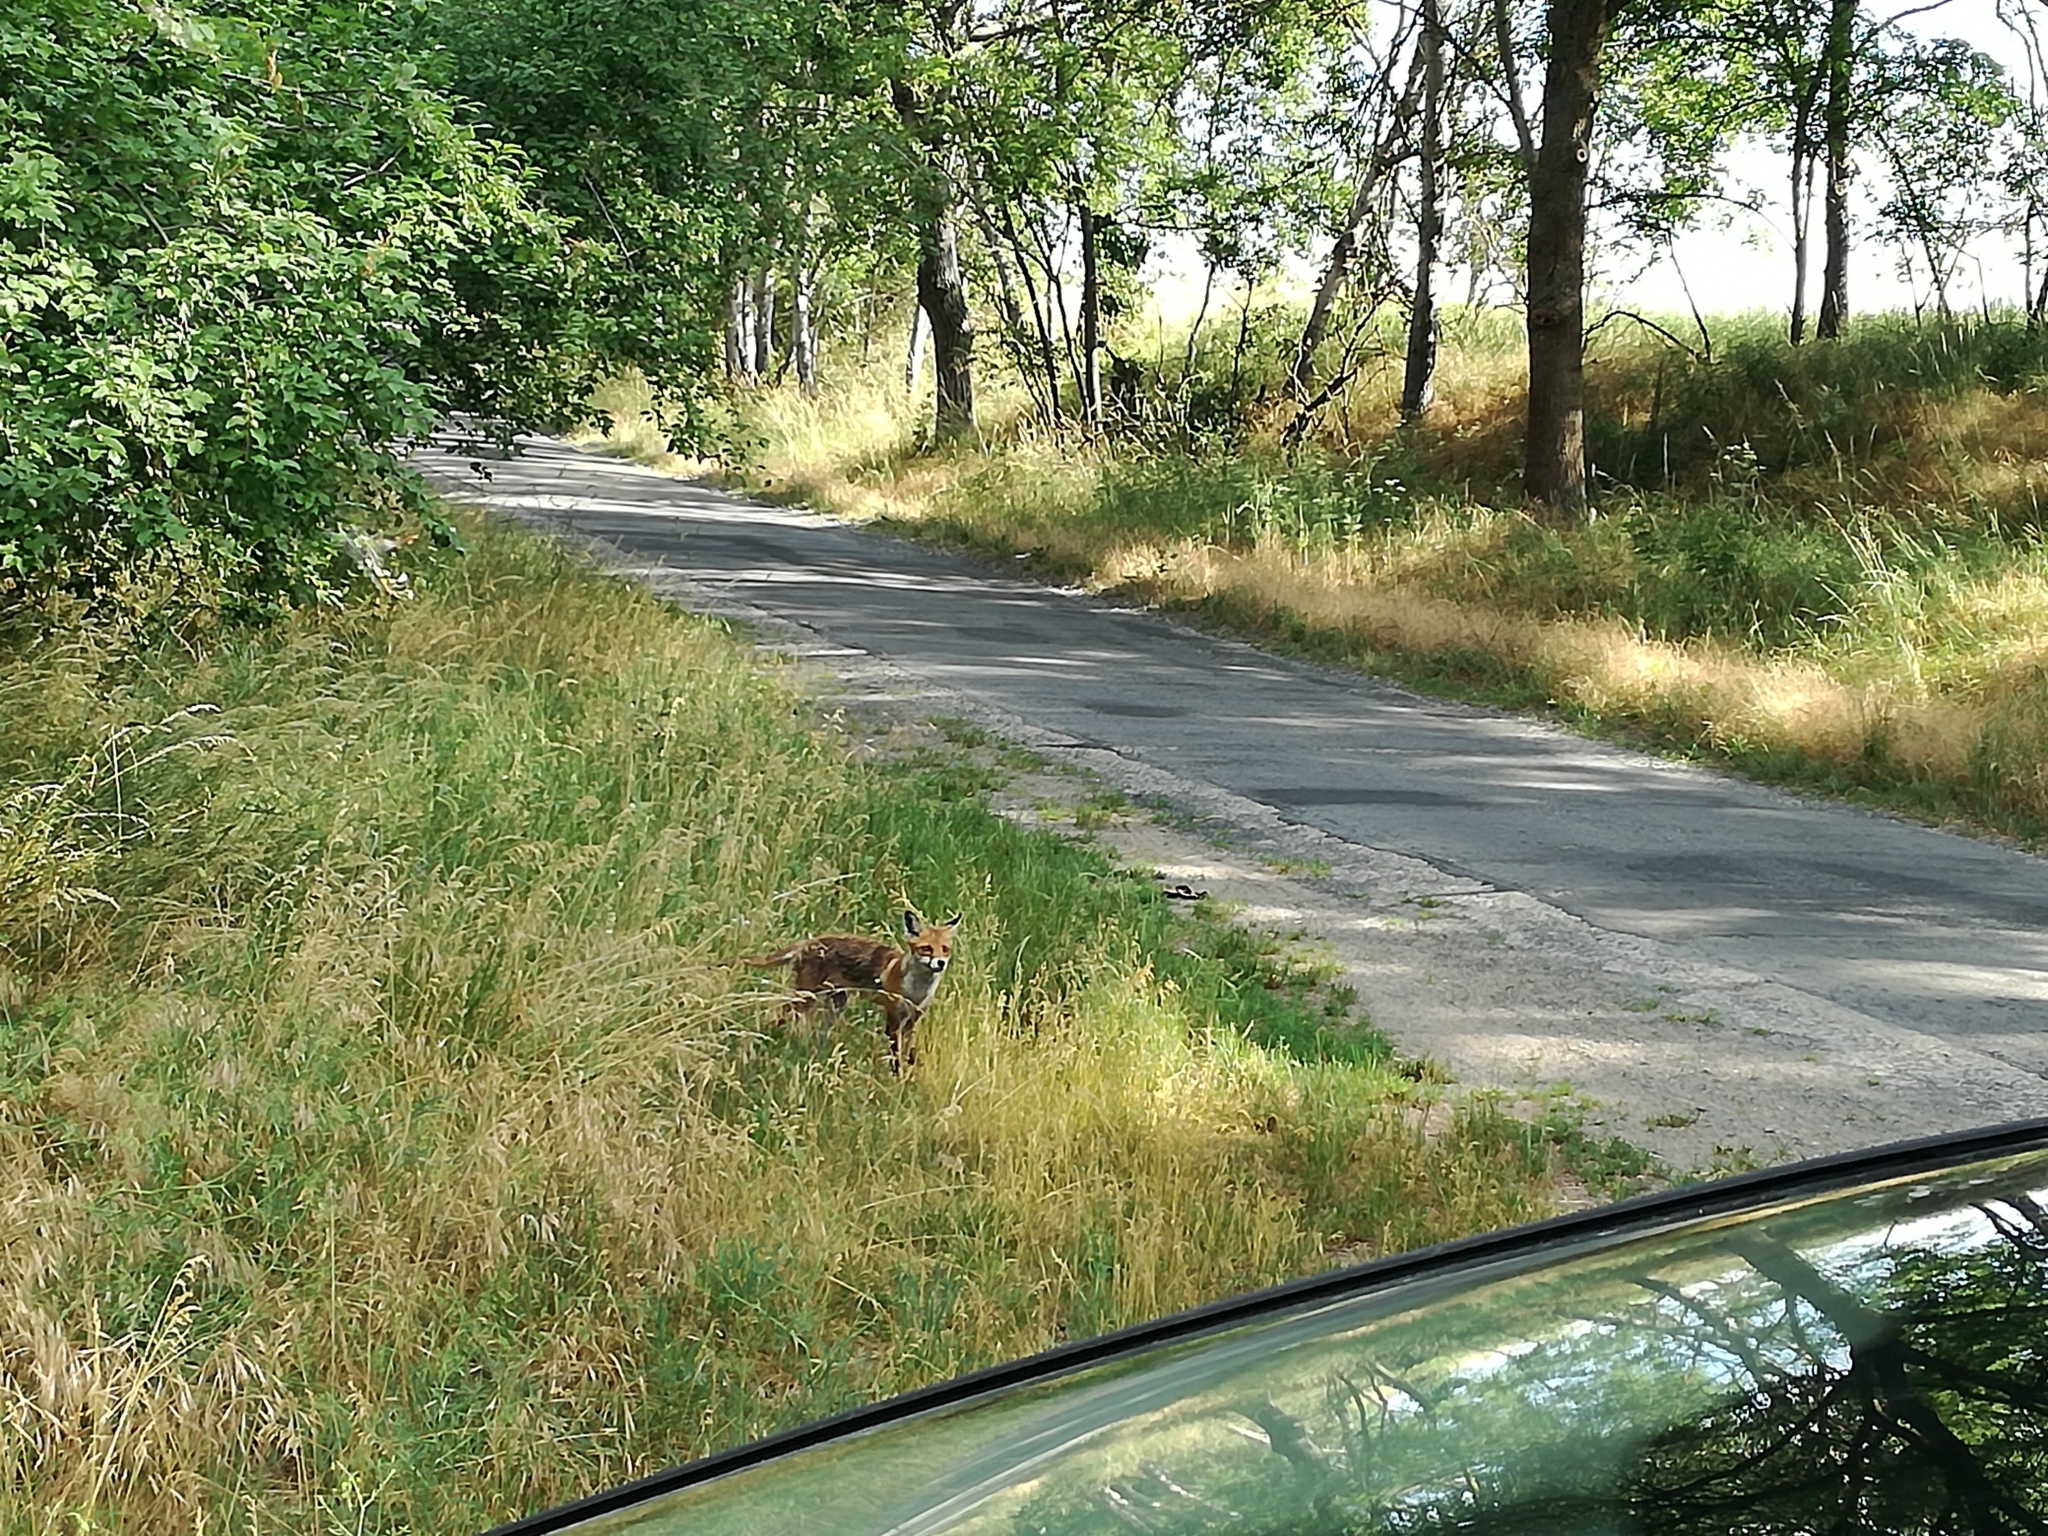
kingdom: Animalia
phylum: Chordata
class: Mammalia
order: Carnivora
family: Canidae
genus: Vulpes
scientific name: Vulpes vulpes
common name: Red fox
